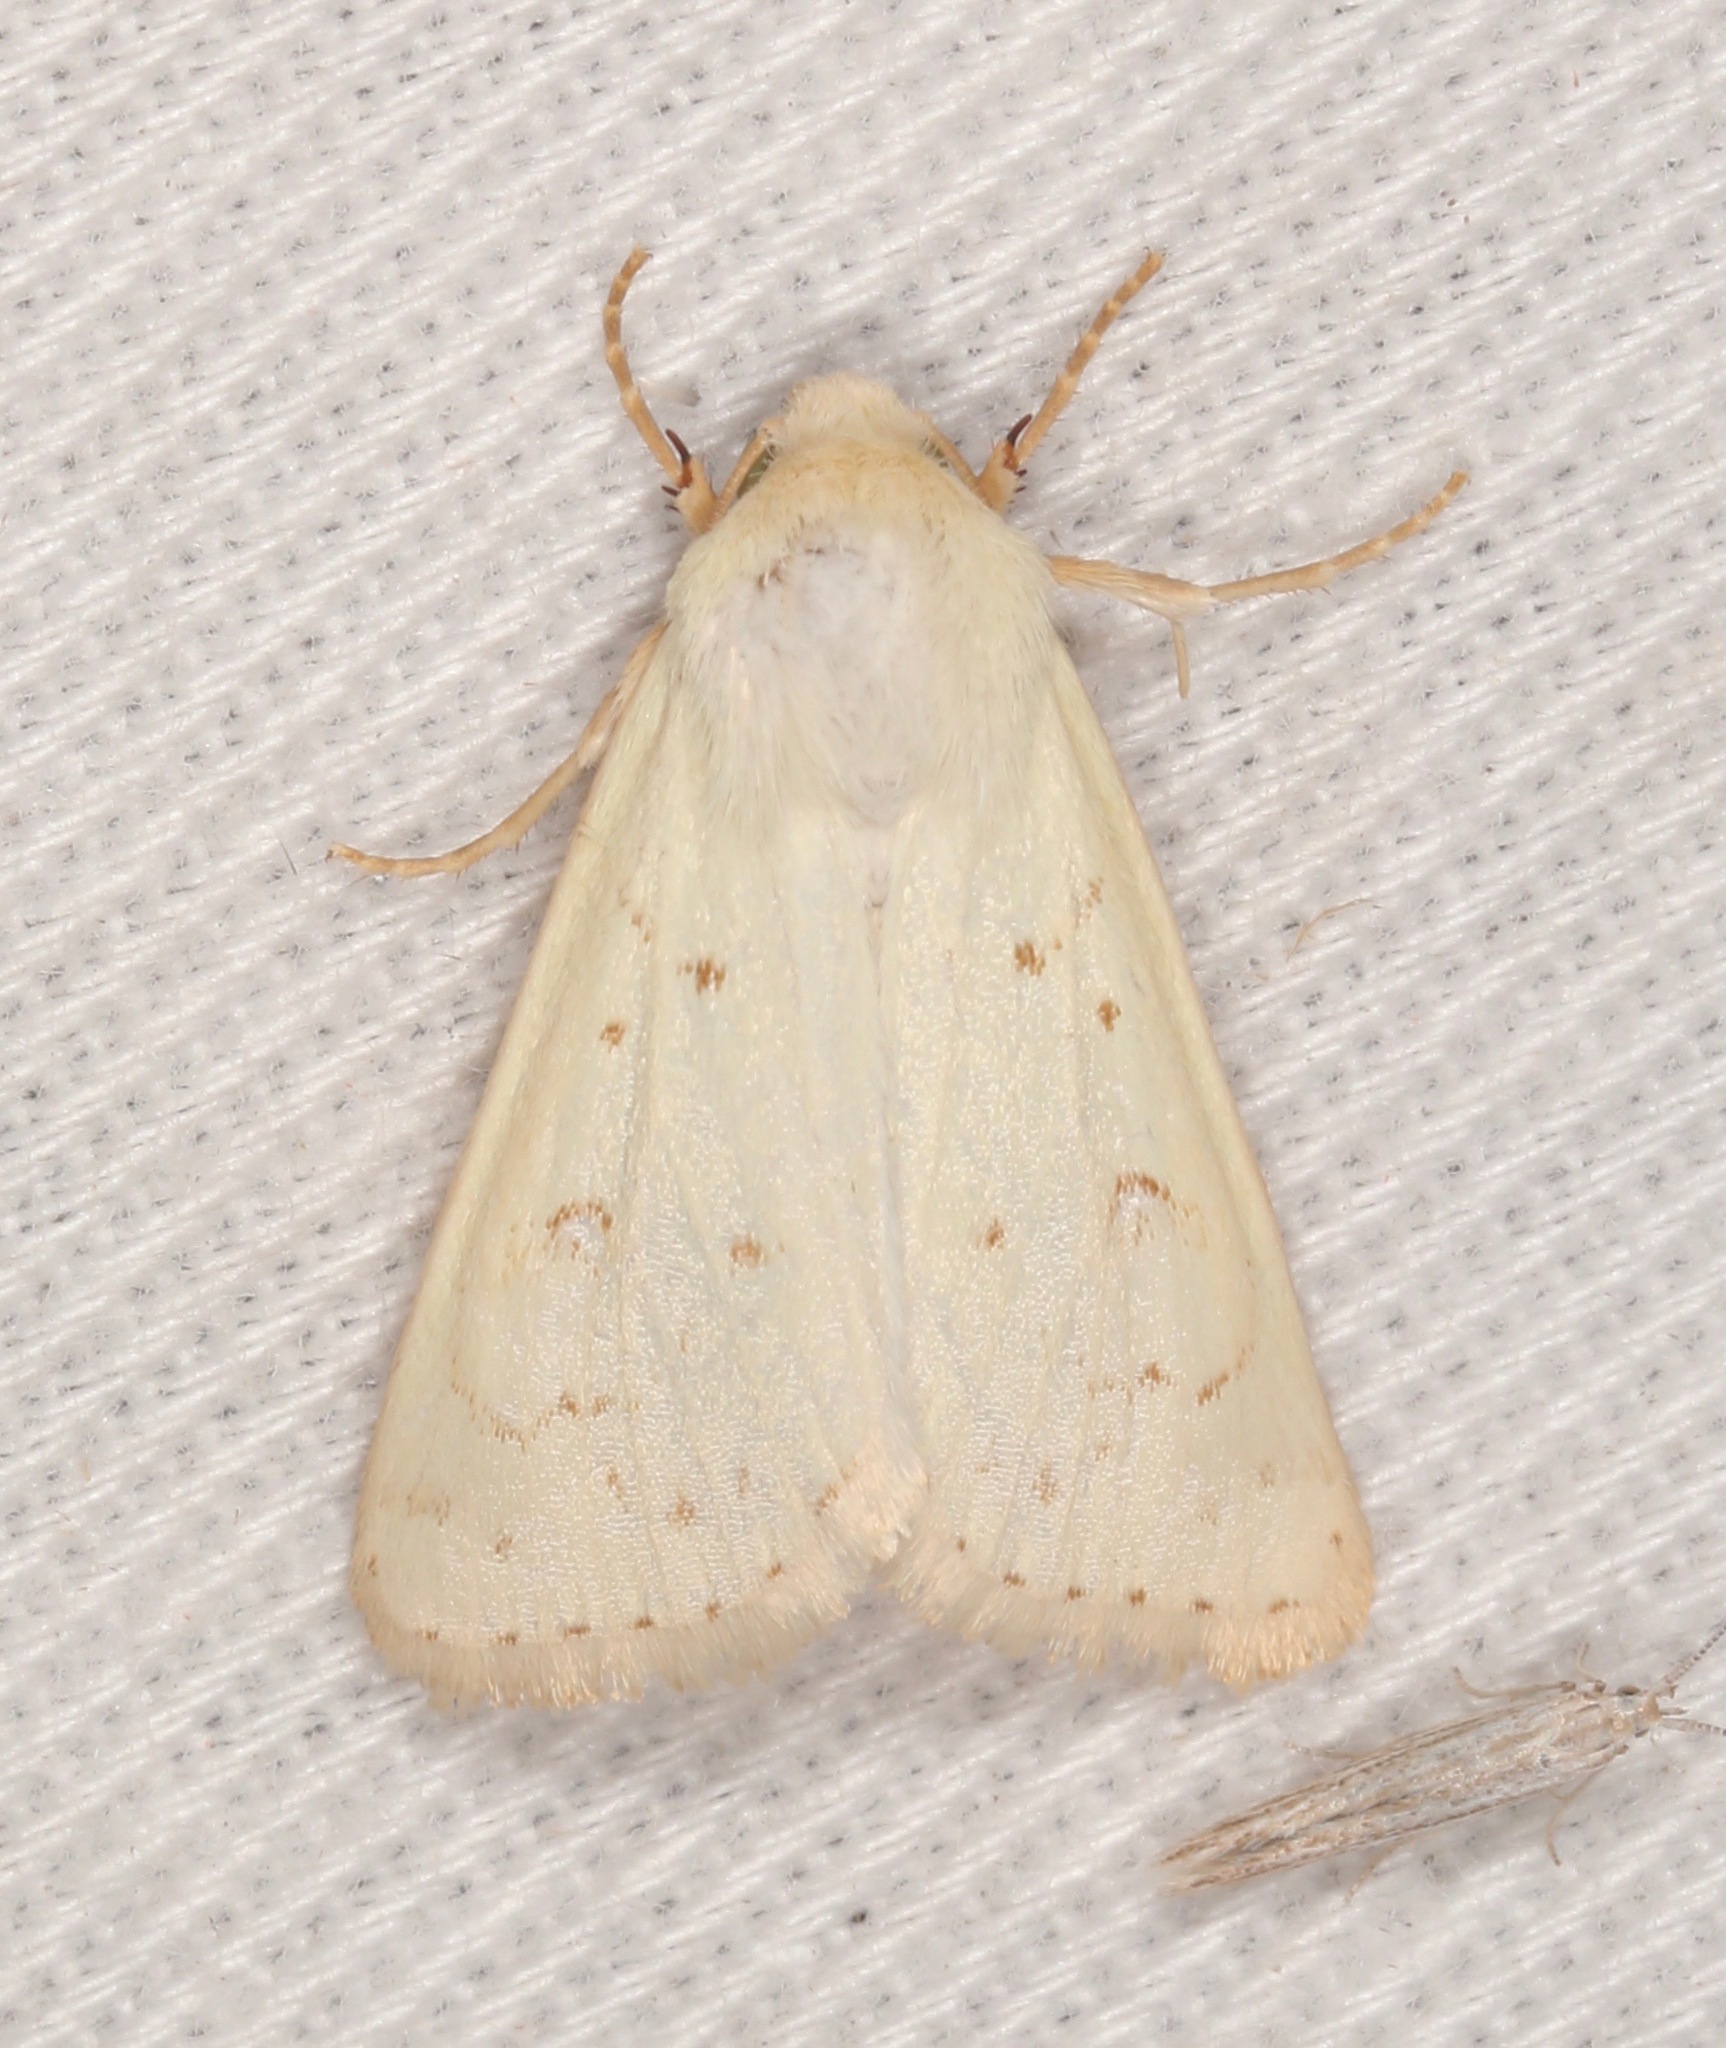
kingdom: Animalia
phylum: Arthropoda
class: Insecta
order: Lepidoptera
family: Noctuidae
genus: Schinia
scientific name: Schinia luxa
